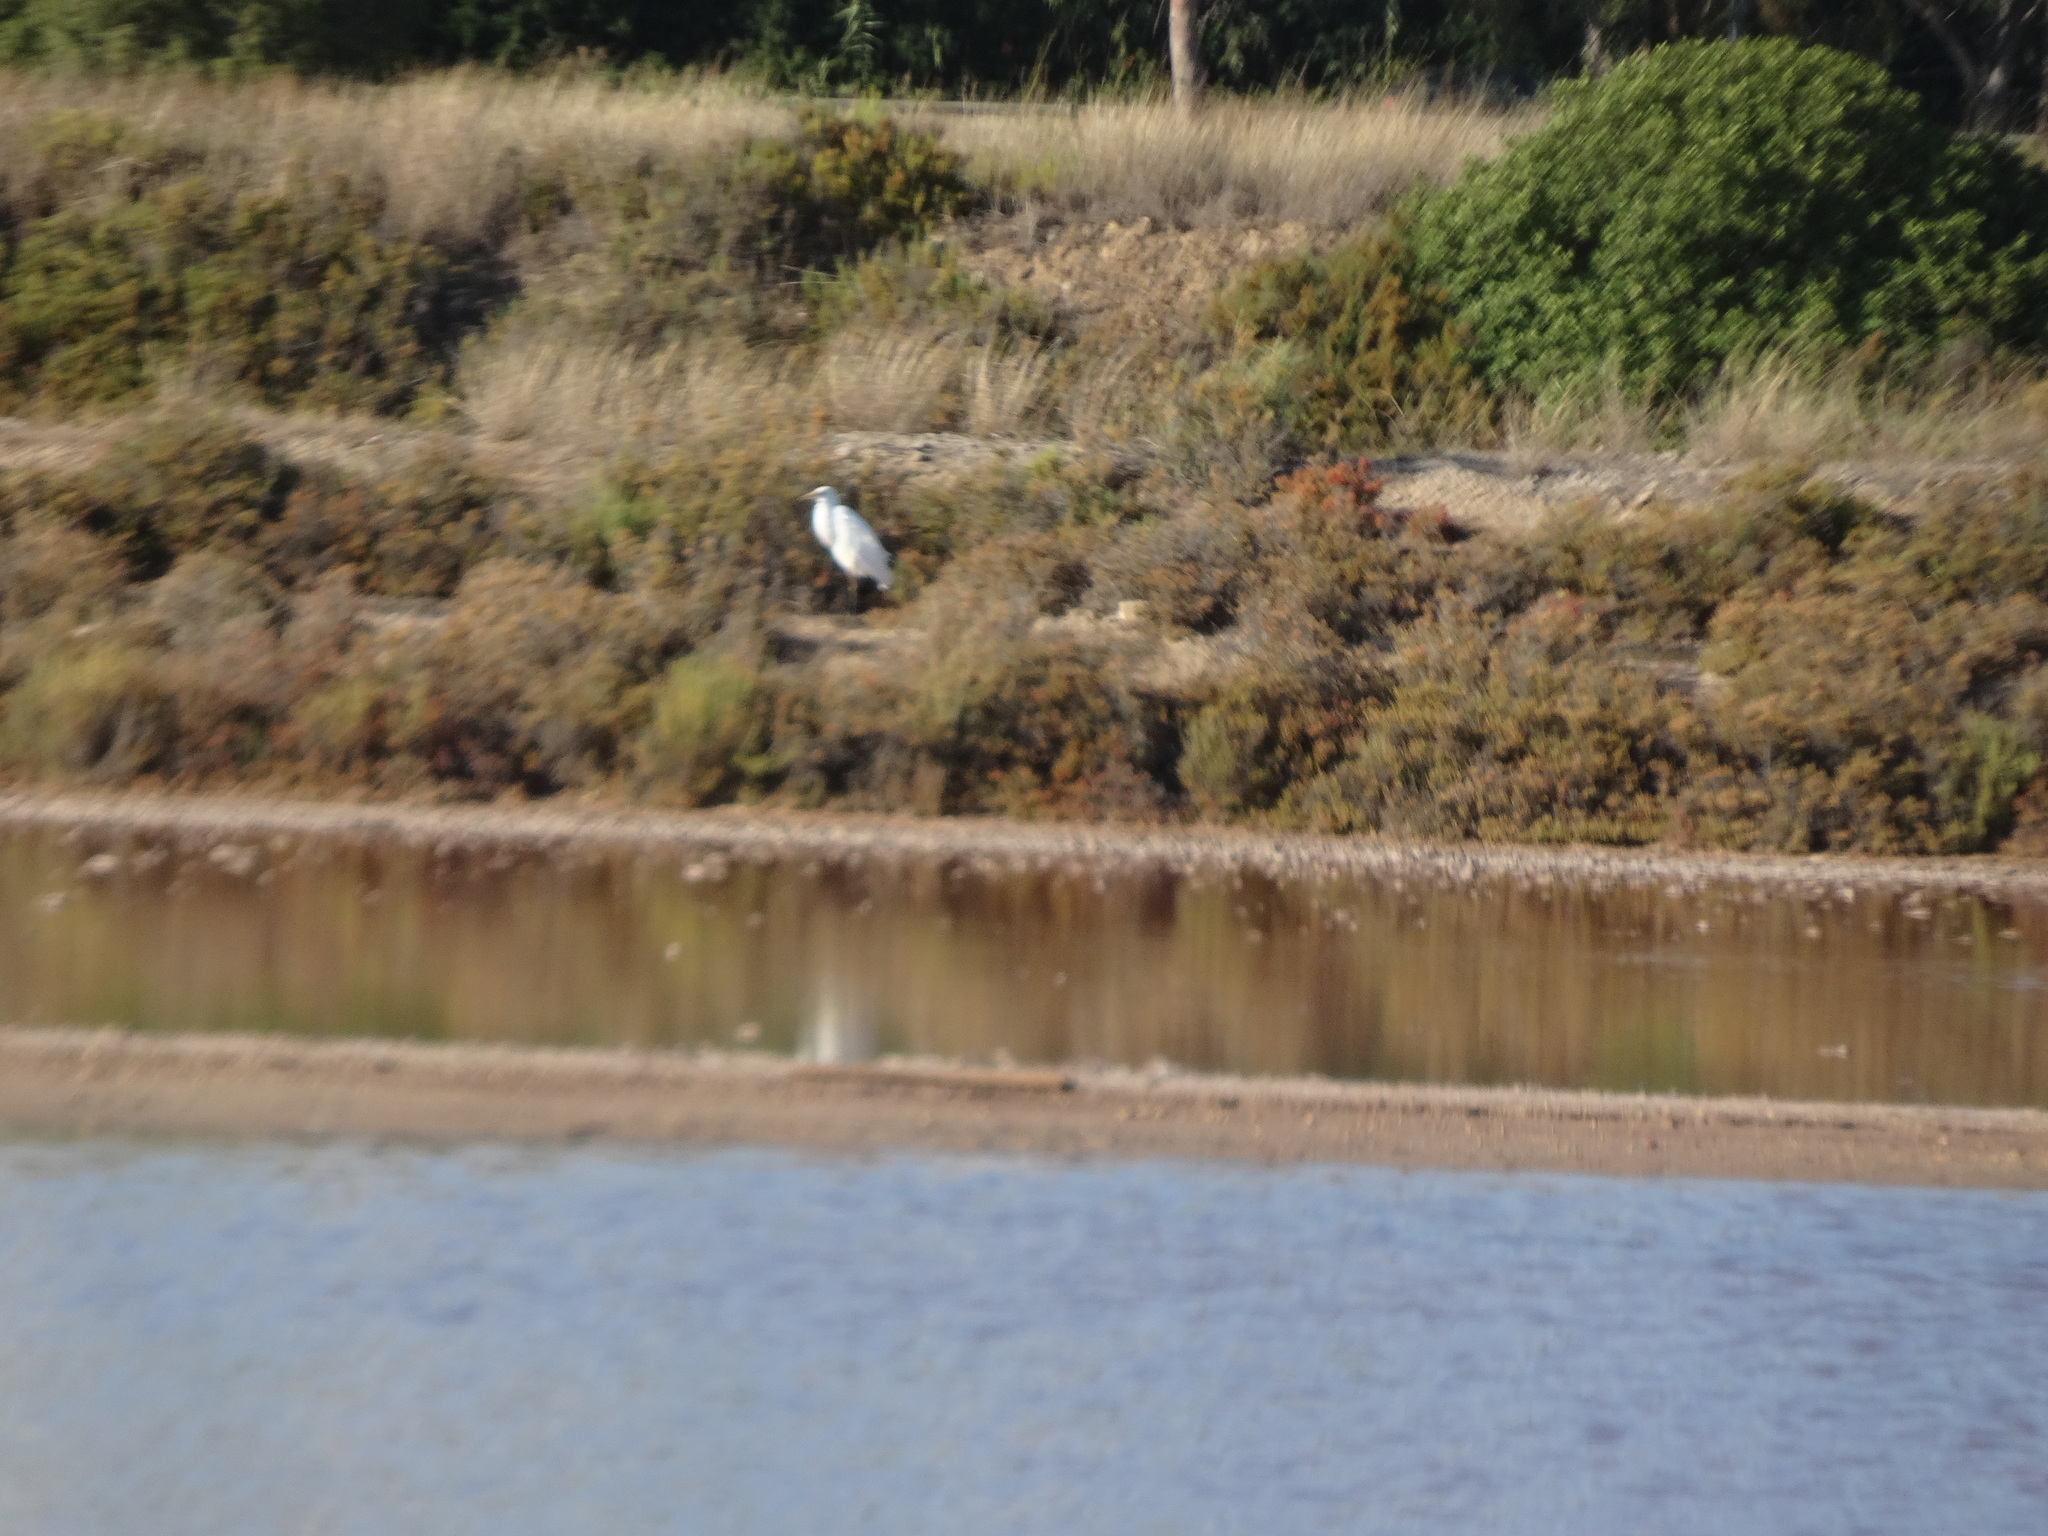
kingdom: Animalia
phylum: Chordata
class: Aves
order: Pelecaniformes
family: Ardeidae
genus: Ardea
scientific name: Ardea alba
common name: Great egret
